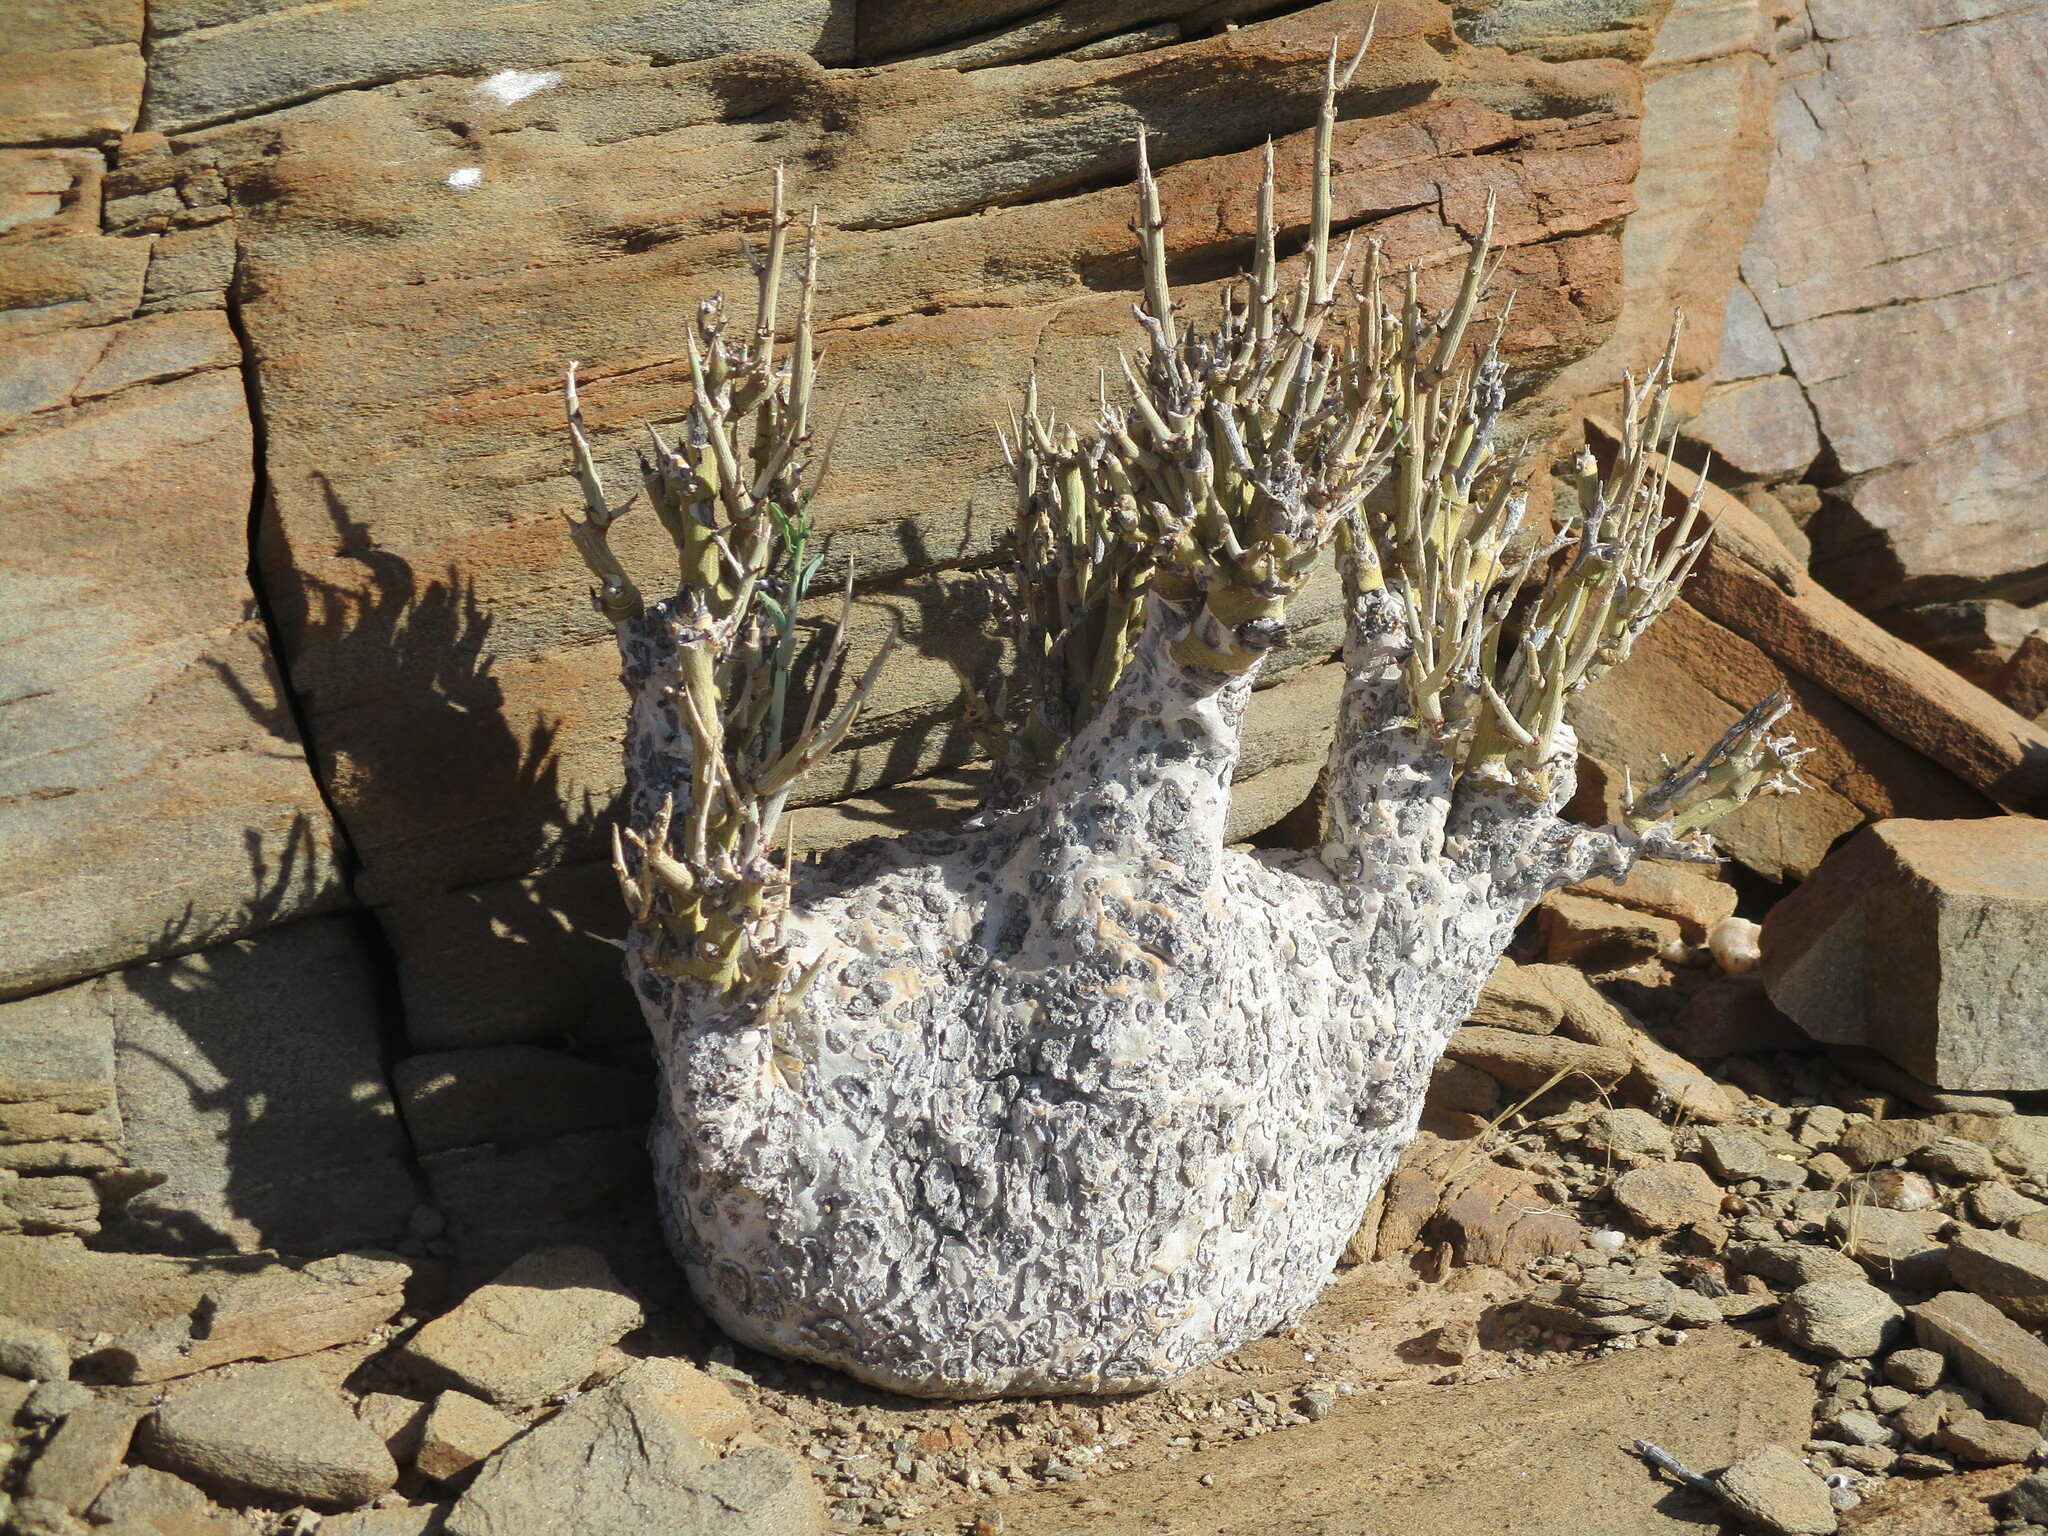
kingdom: Plantae
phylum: Tracheophyta
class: Magnoliopsida
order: Malpighiales
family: Passifloraceae
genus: Adenia
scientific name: Adenia pechuelii
